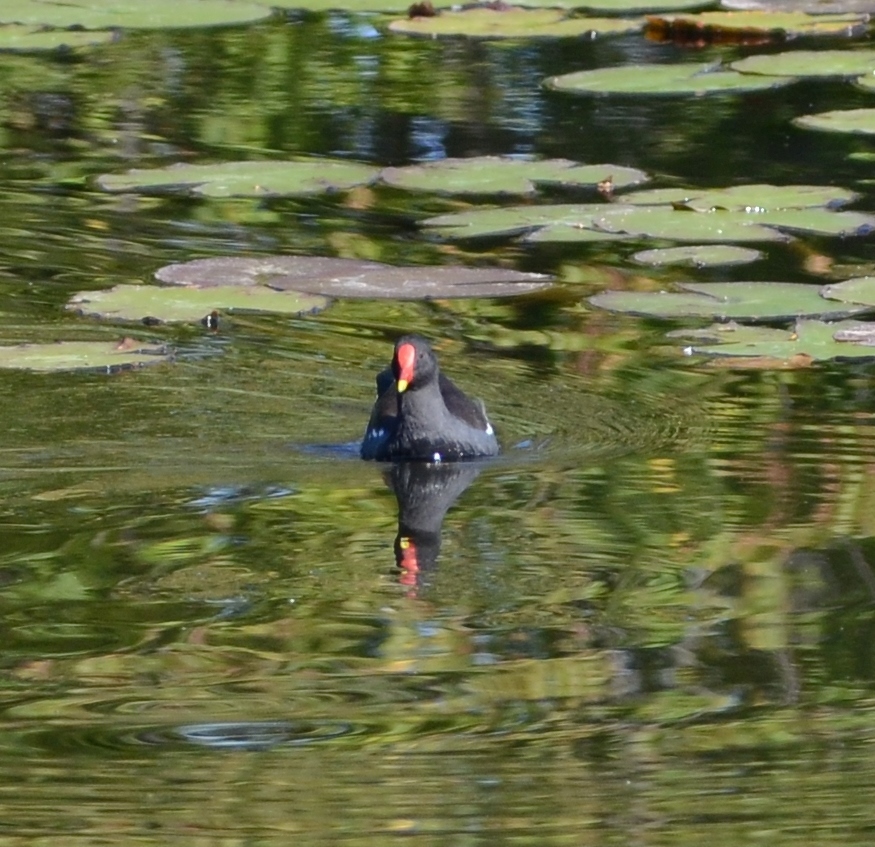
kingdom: Animalia
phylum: Chordata
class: Aves
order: Gruiformes
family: Rallidae
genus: Gallinula
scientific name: Gallinula chloropus
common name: Common moorhen
